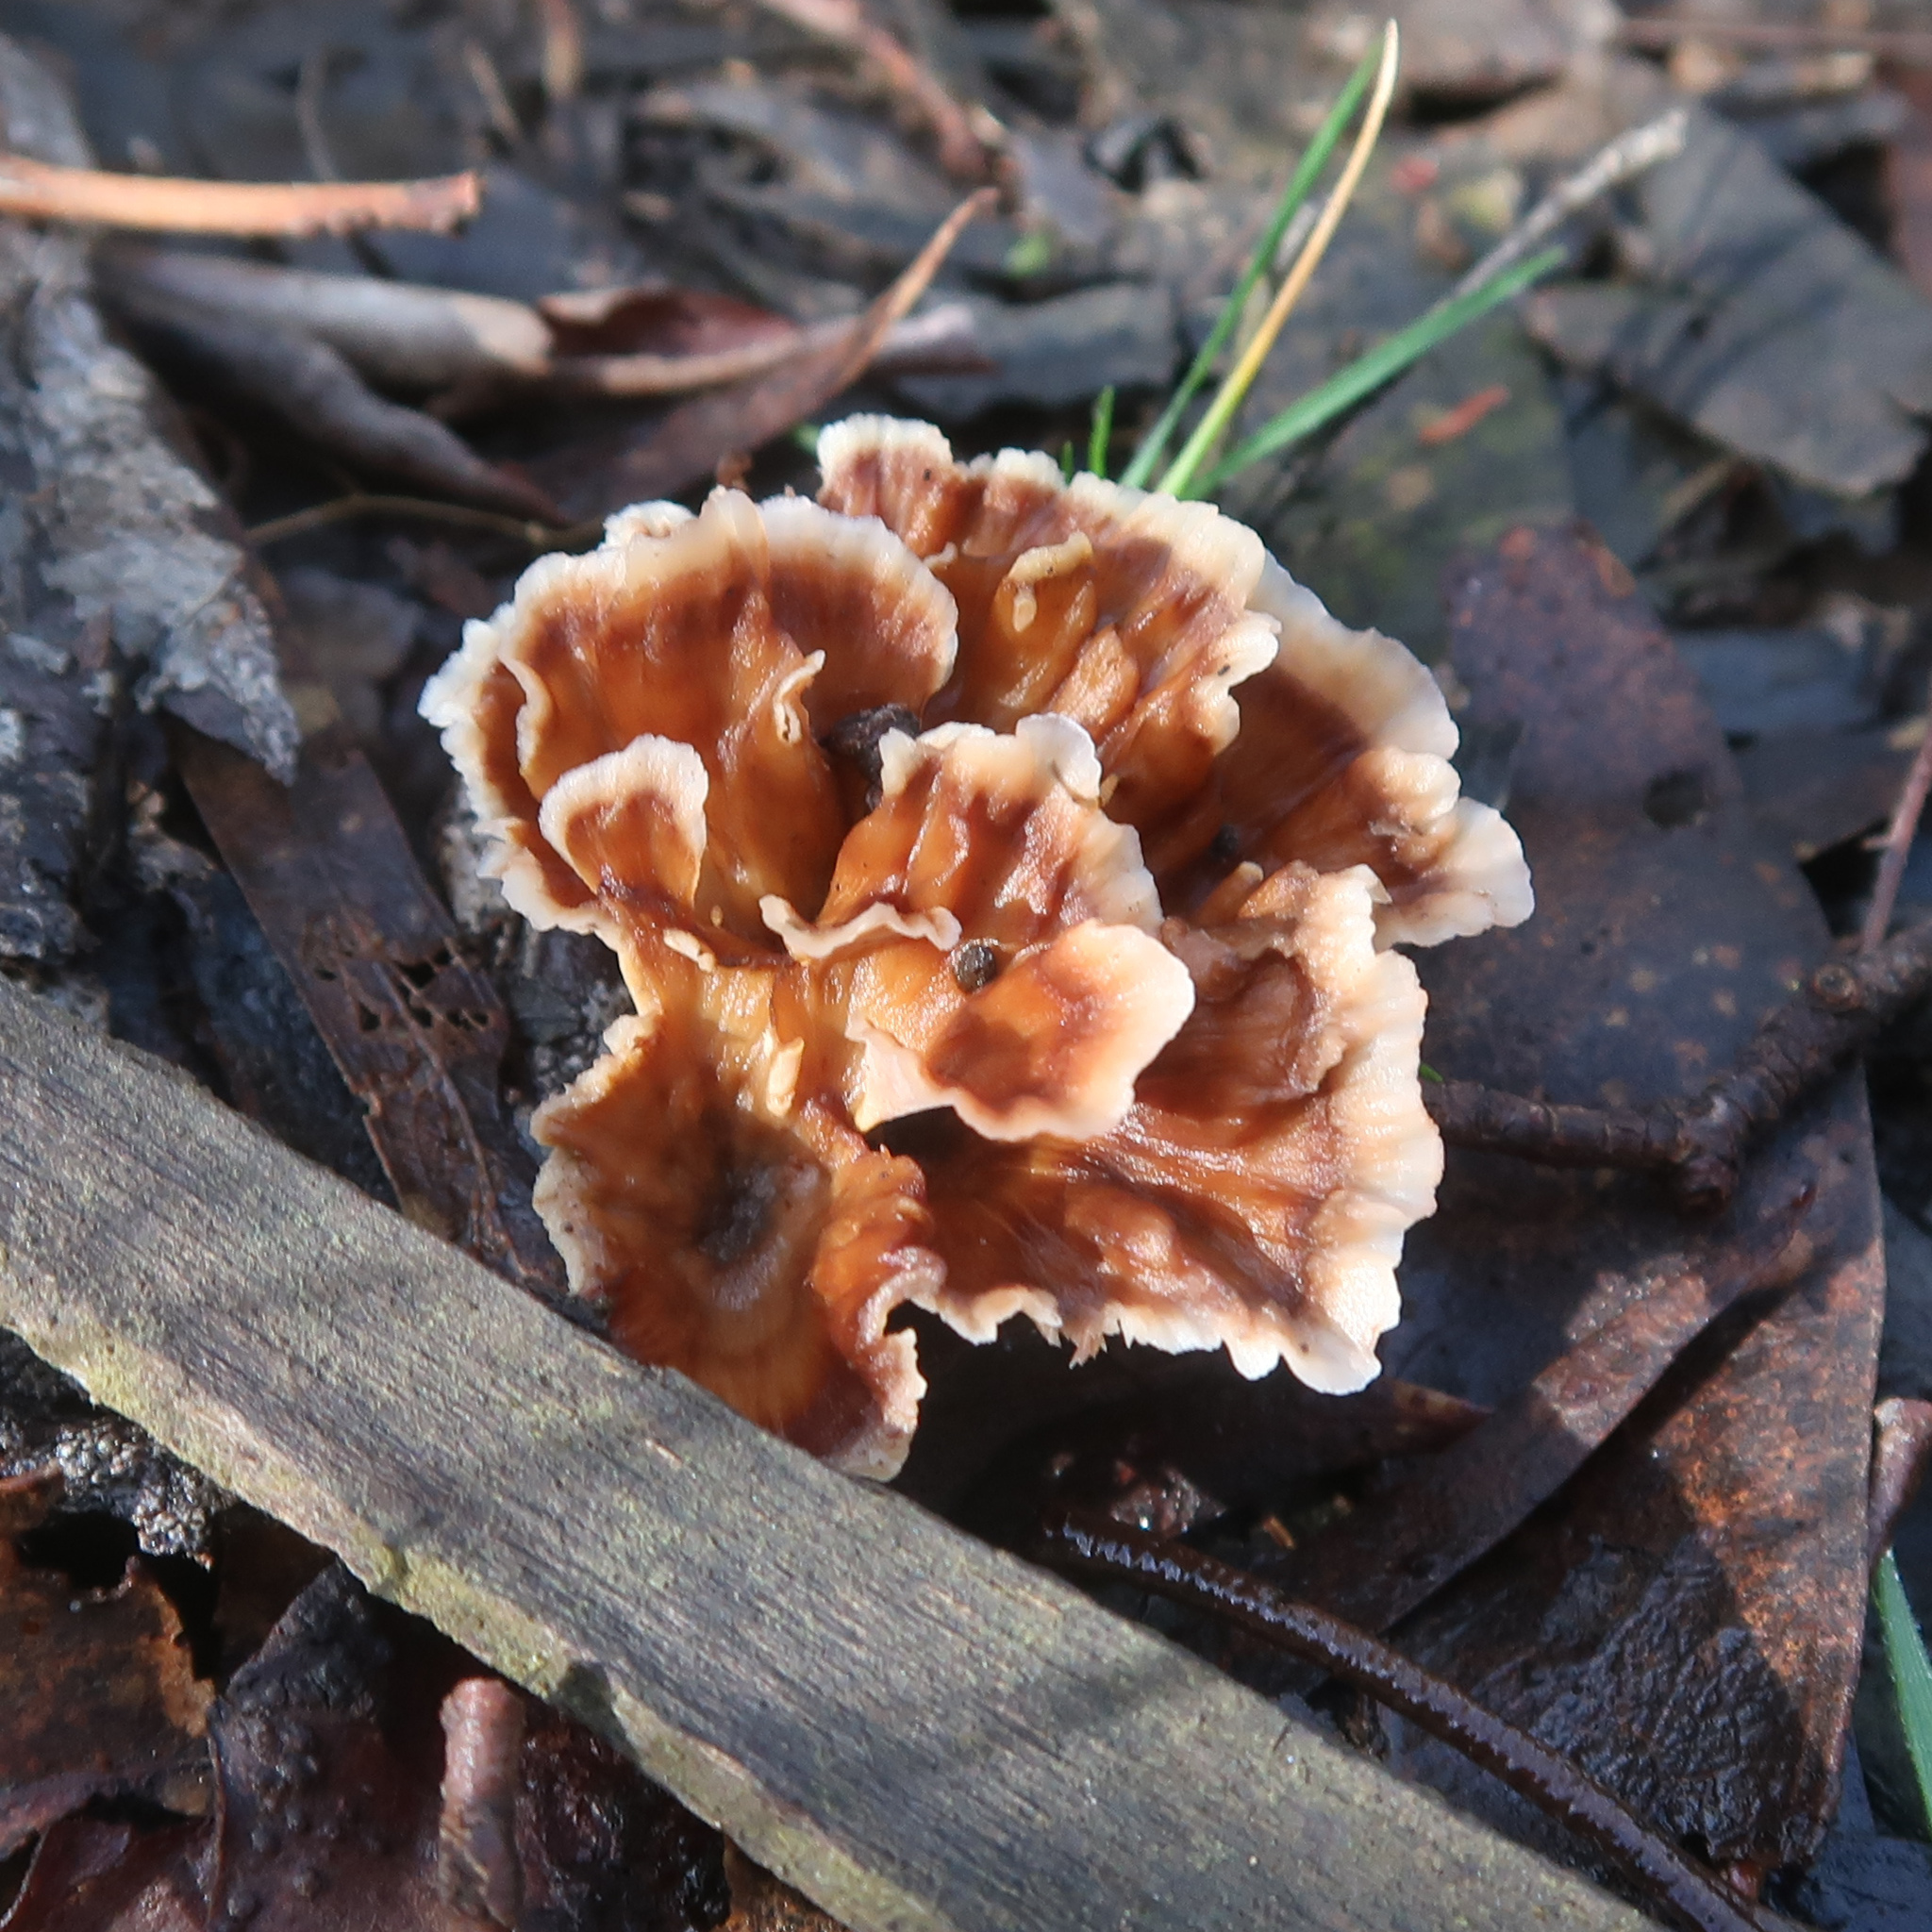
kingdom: Fungi
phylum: Basidiomycota
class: Agaricomycetes
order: Polyporales
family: Podoscyphaceae
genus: Podoscypha
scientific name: Podoscypha petalodes
